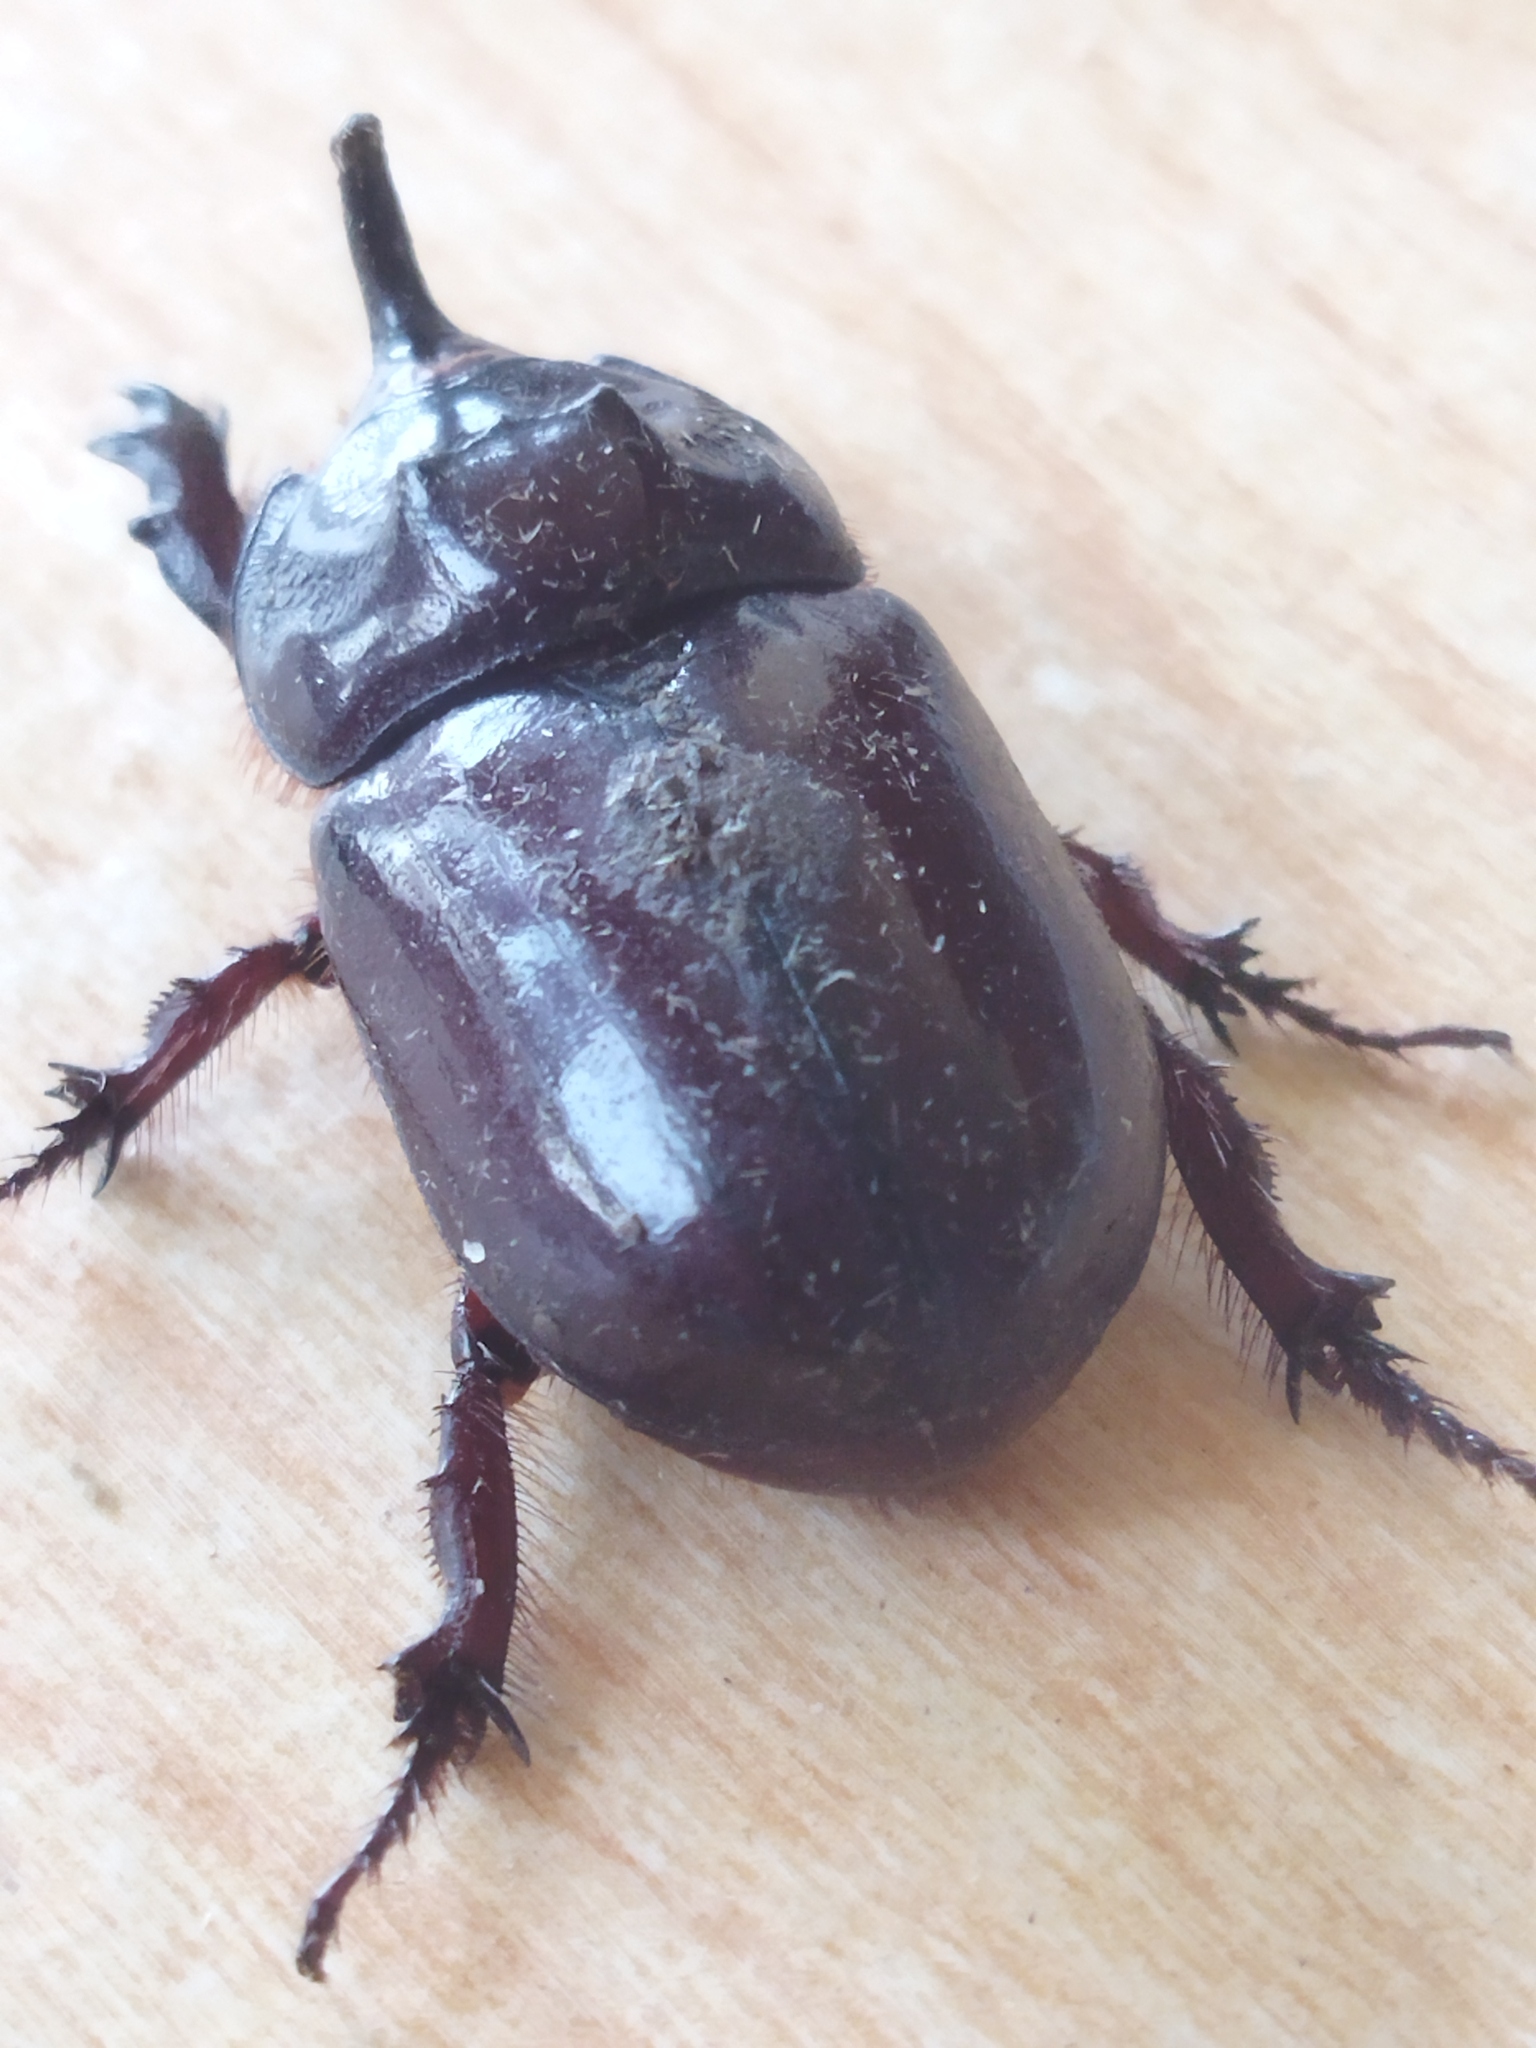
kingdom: Animalia
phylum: Arthropoda
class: Insecta
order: Coleoptera
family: Scarabaeidae
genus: Oryctes
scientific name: Oryctes nasicornis
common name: European rhinoceros beetle
